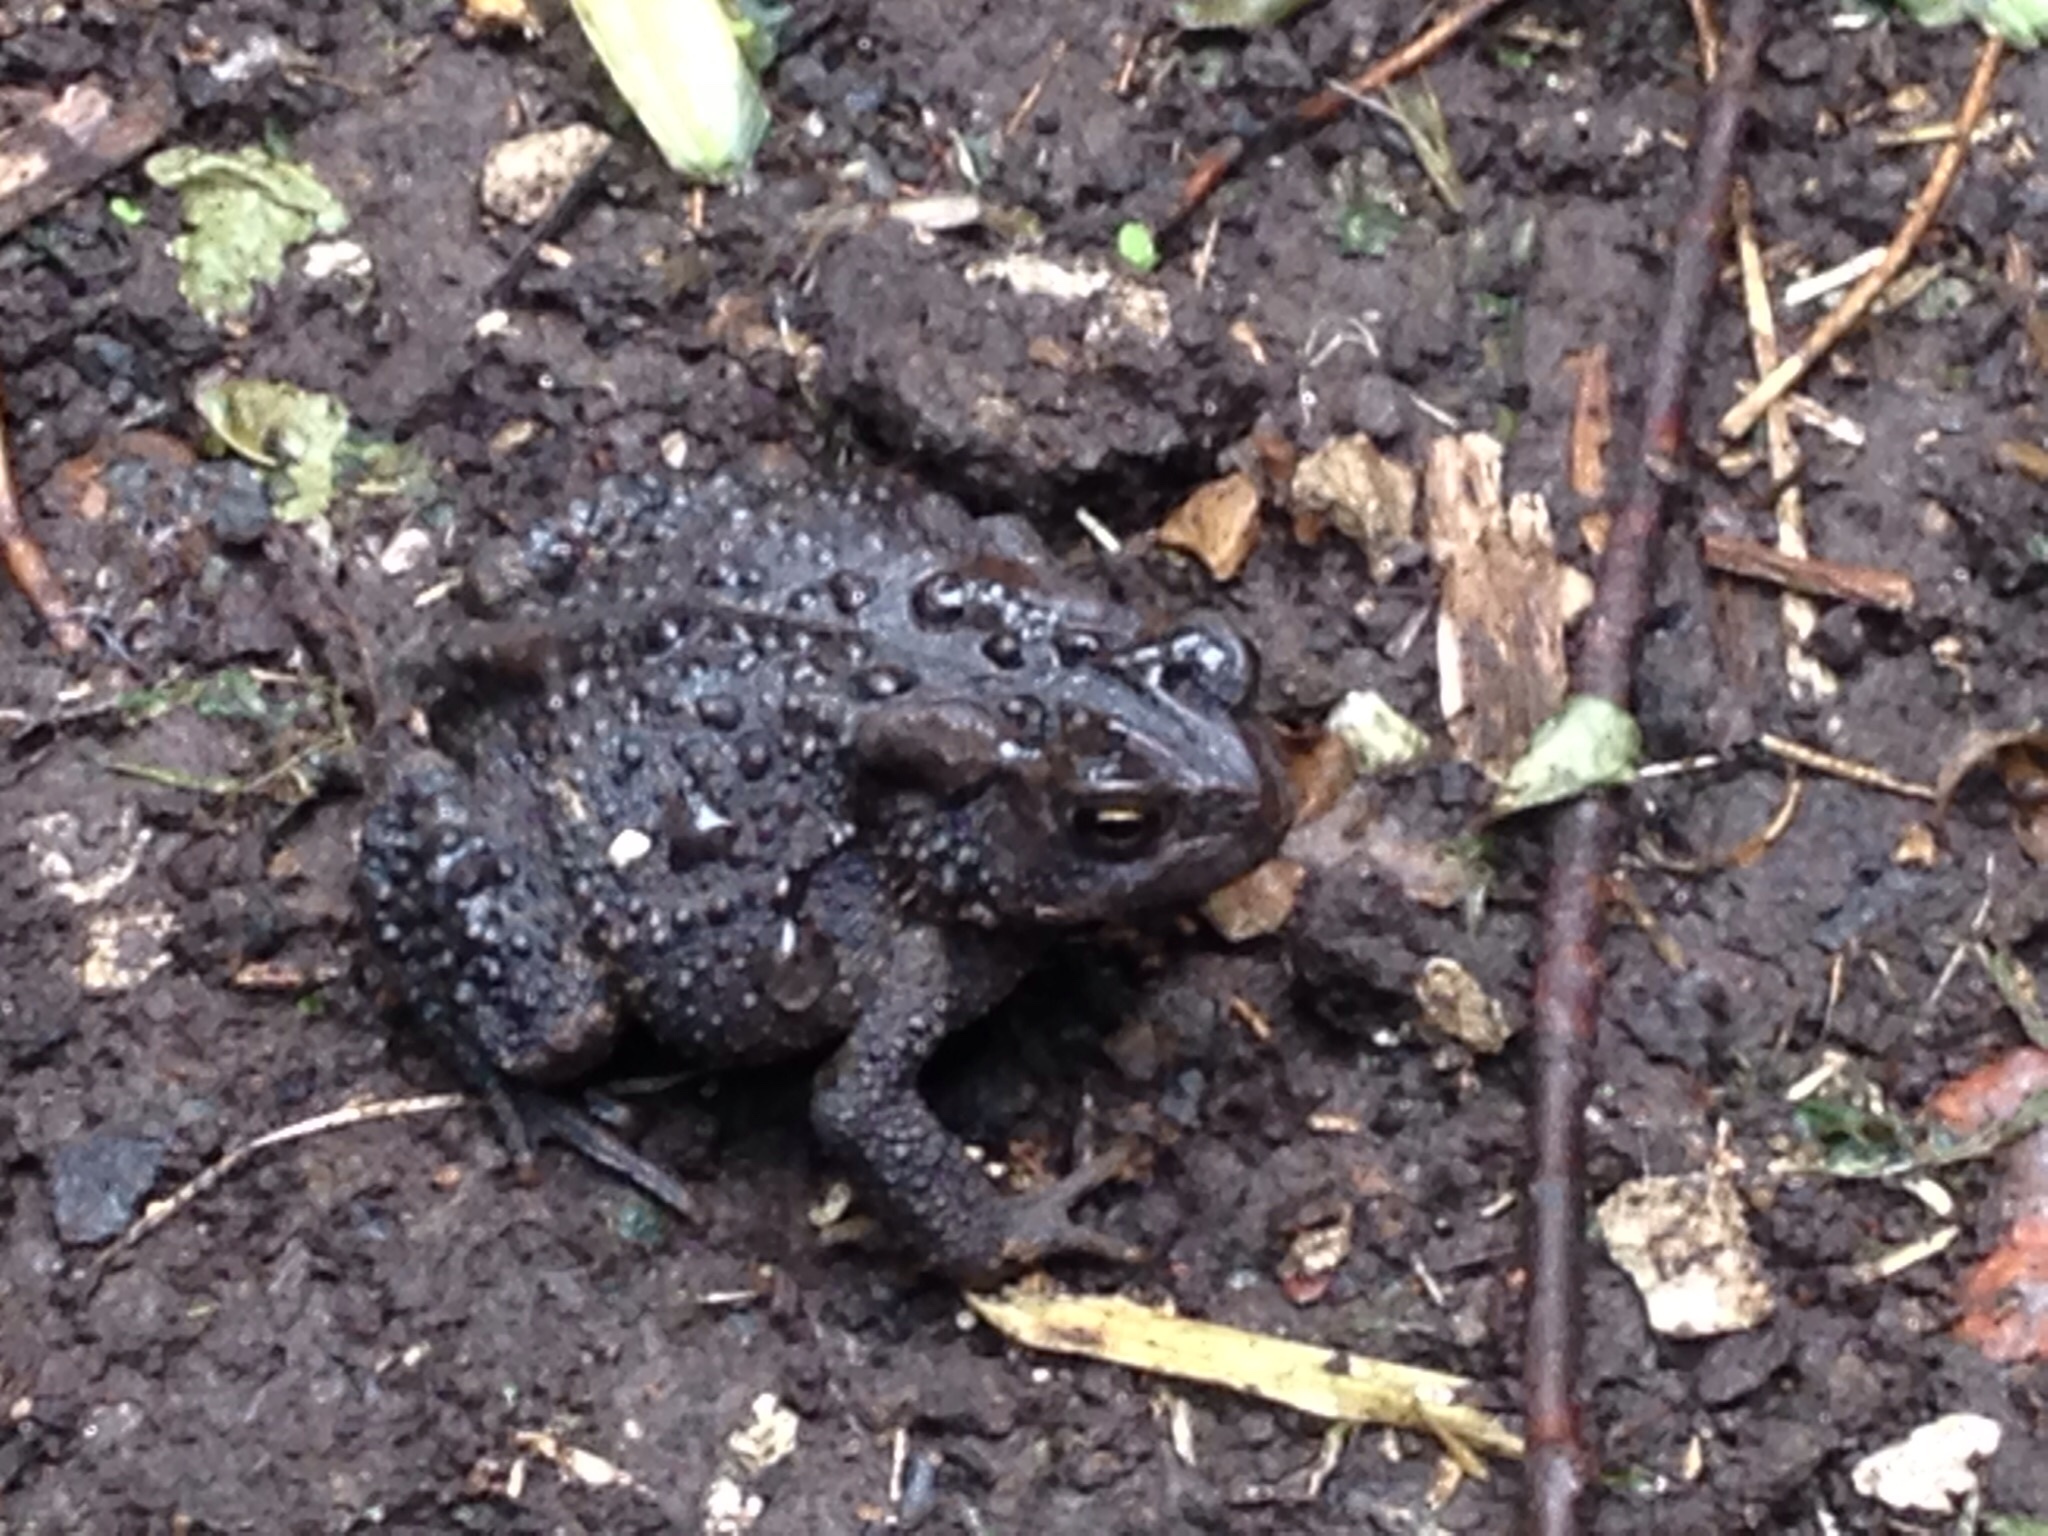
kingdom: Animalia
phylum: Chordata
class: Amphibia
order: Anura
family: Bufonidae
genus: Anaxyrus
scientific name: Anaxyrus americanus
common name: American toad
